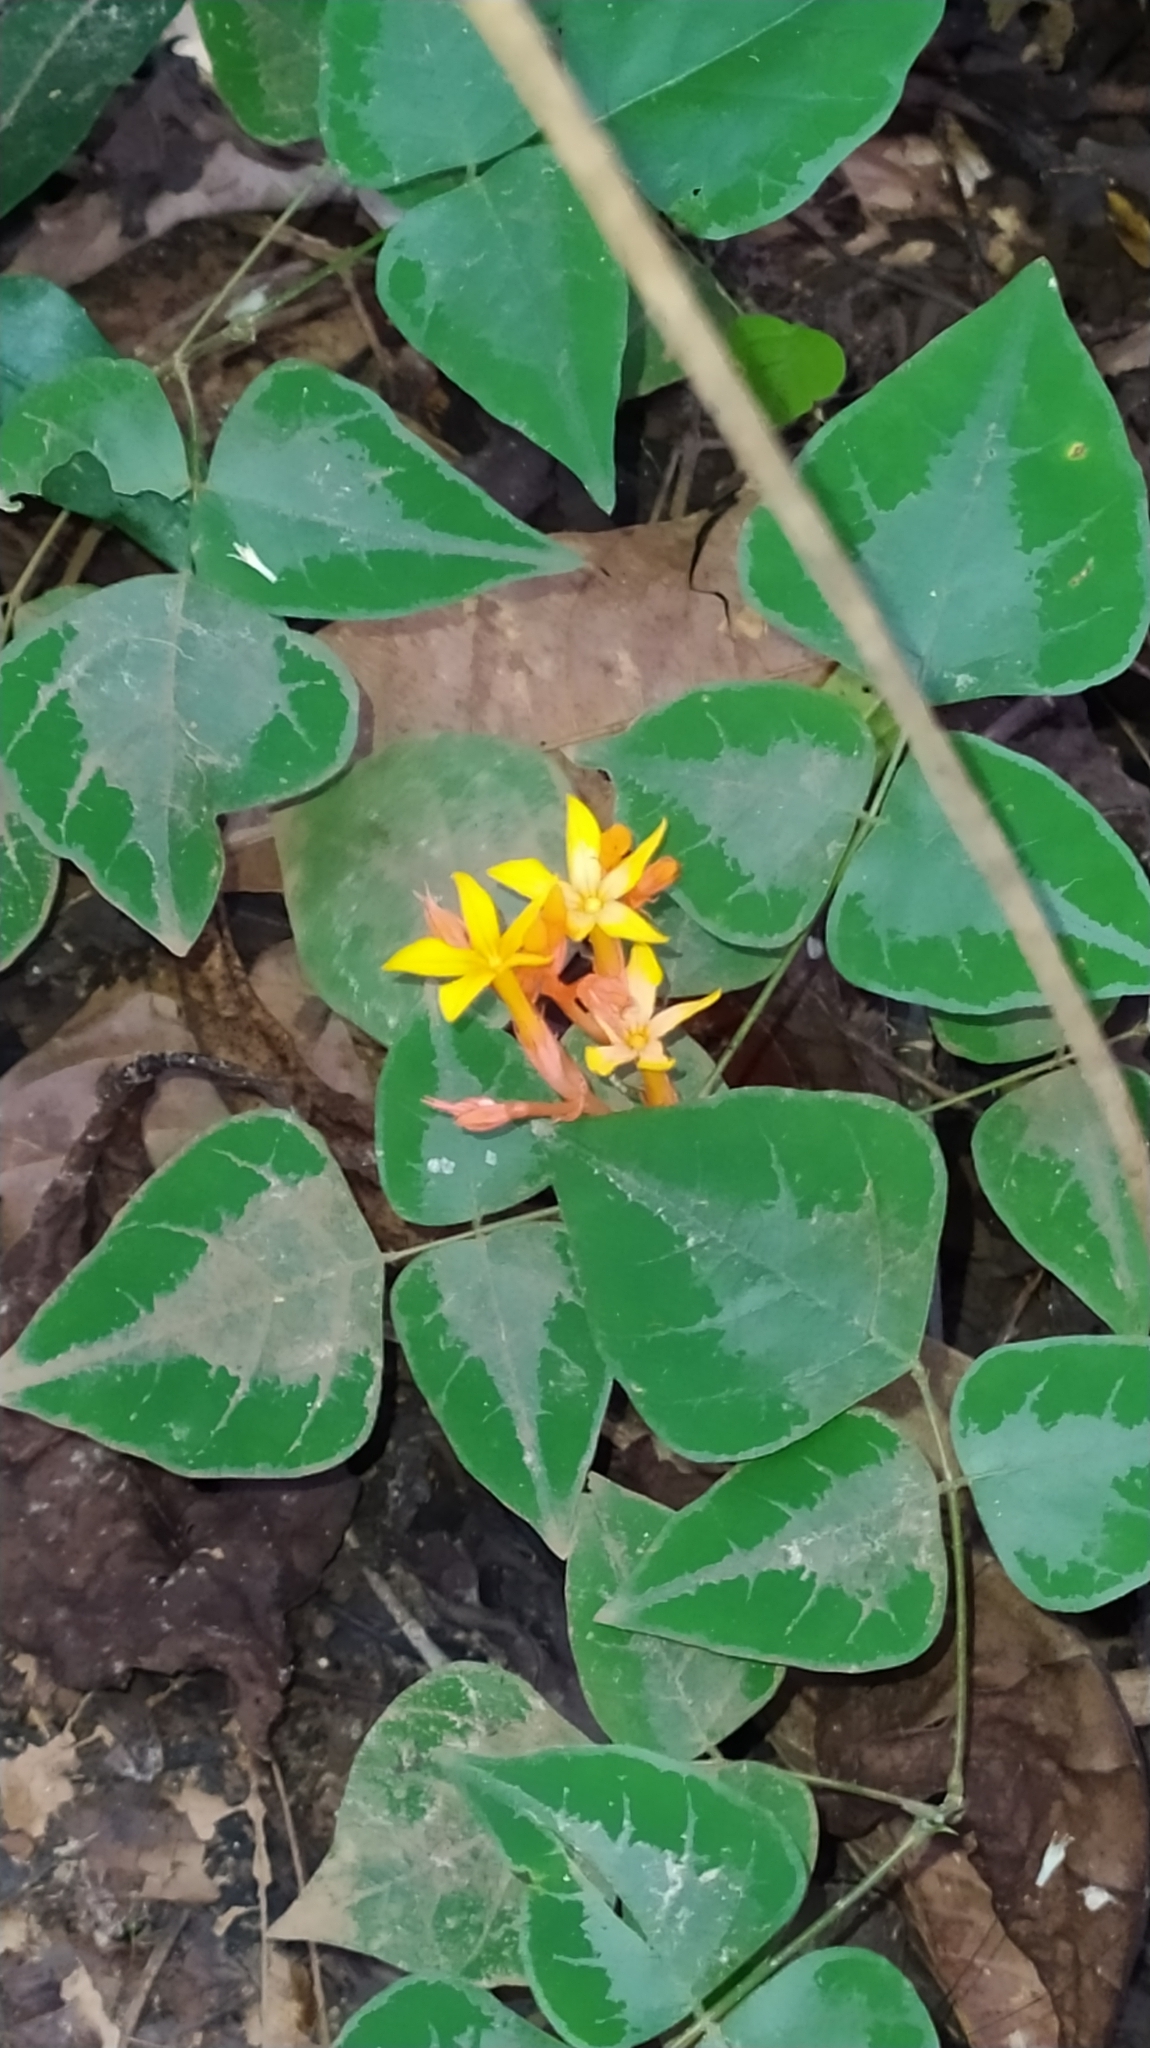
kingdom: Plantae
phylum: Tracheophyta
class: Magnoliopsida
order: Gentianales
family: Gentianaceae
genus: Voyria
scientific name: Voyria aurantiaca
